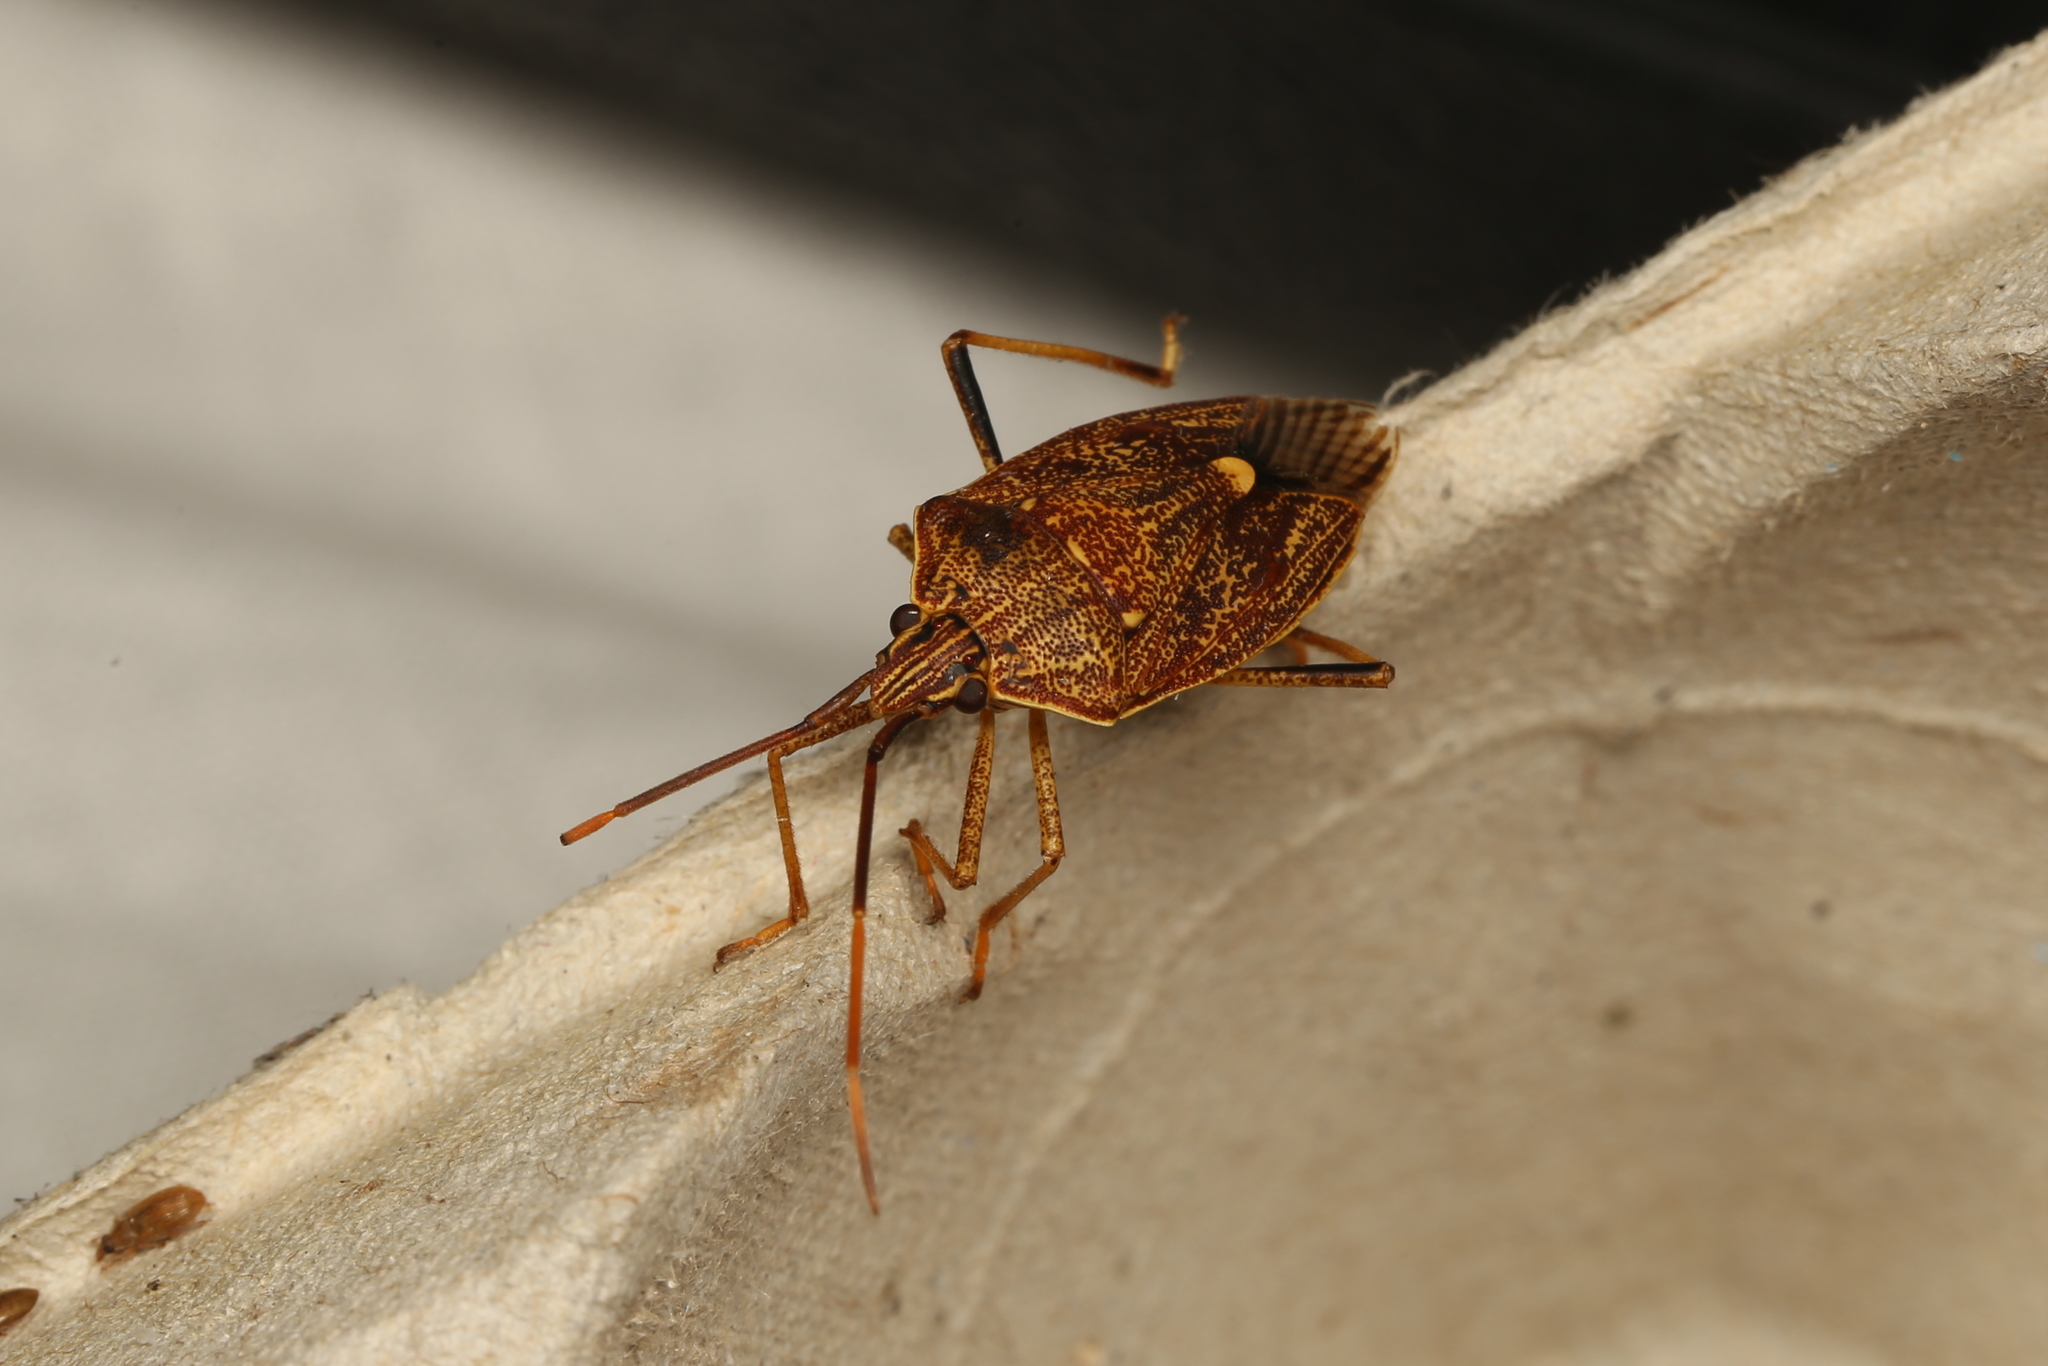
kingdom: Animalia
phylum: Arthropoda
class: Insecta
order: Hemiptera
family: Pentatomidae
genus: Poecilometis
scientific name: Poecilometis
